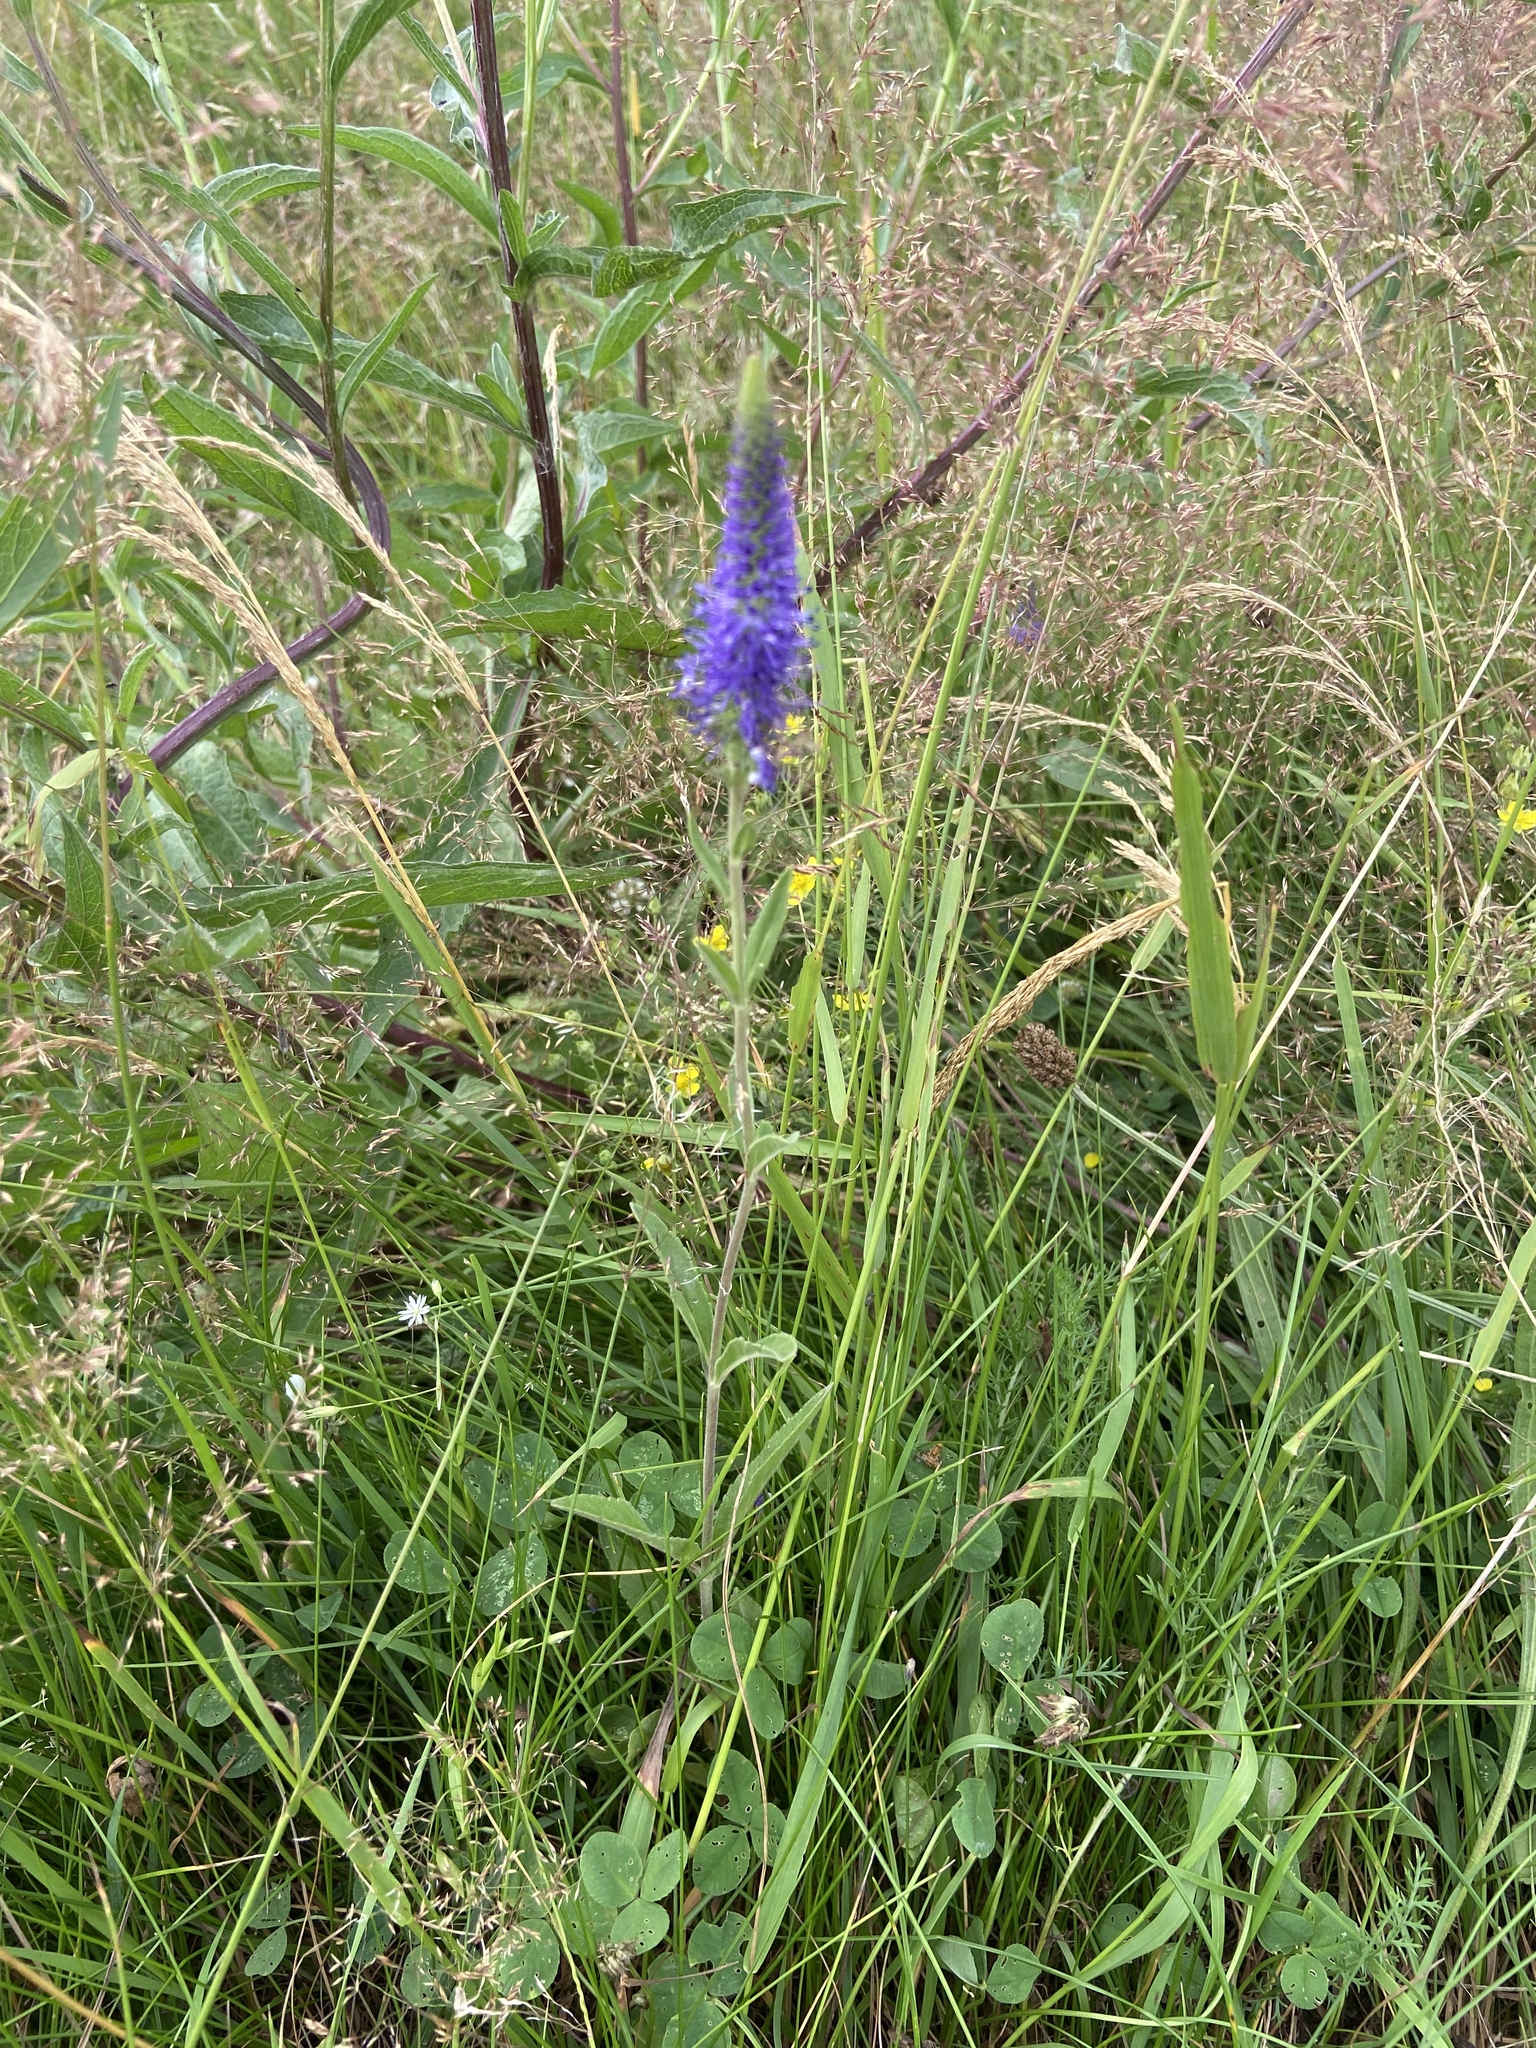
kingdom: Plantae
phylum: Tracheophyta
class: Magnoliopsida
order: Lamiales
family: Plantaginaceae
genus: Veronica
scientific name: Veronica spicata
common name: Spiked speedwell
